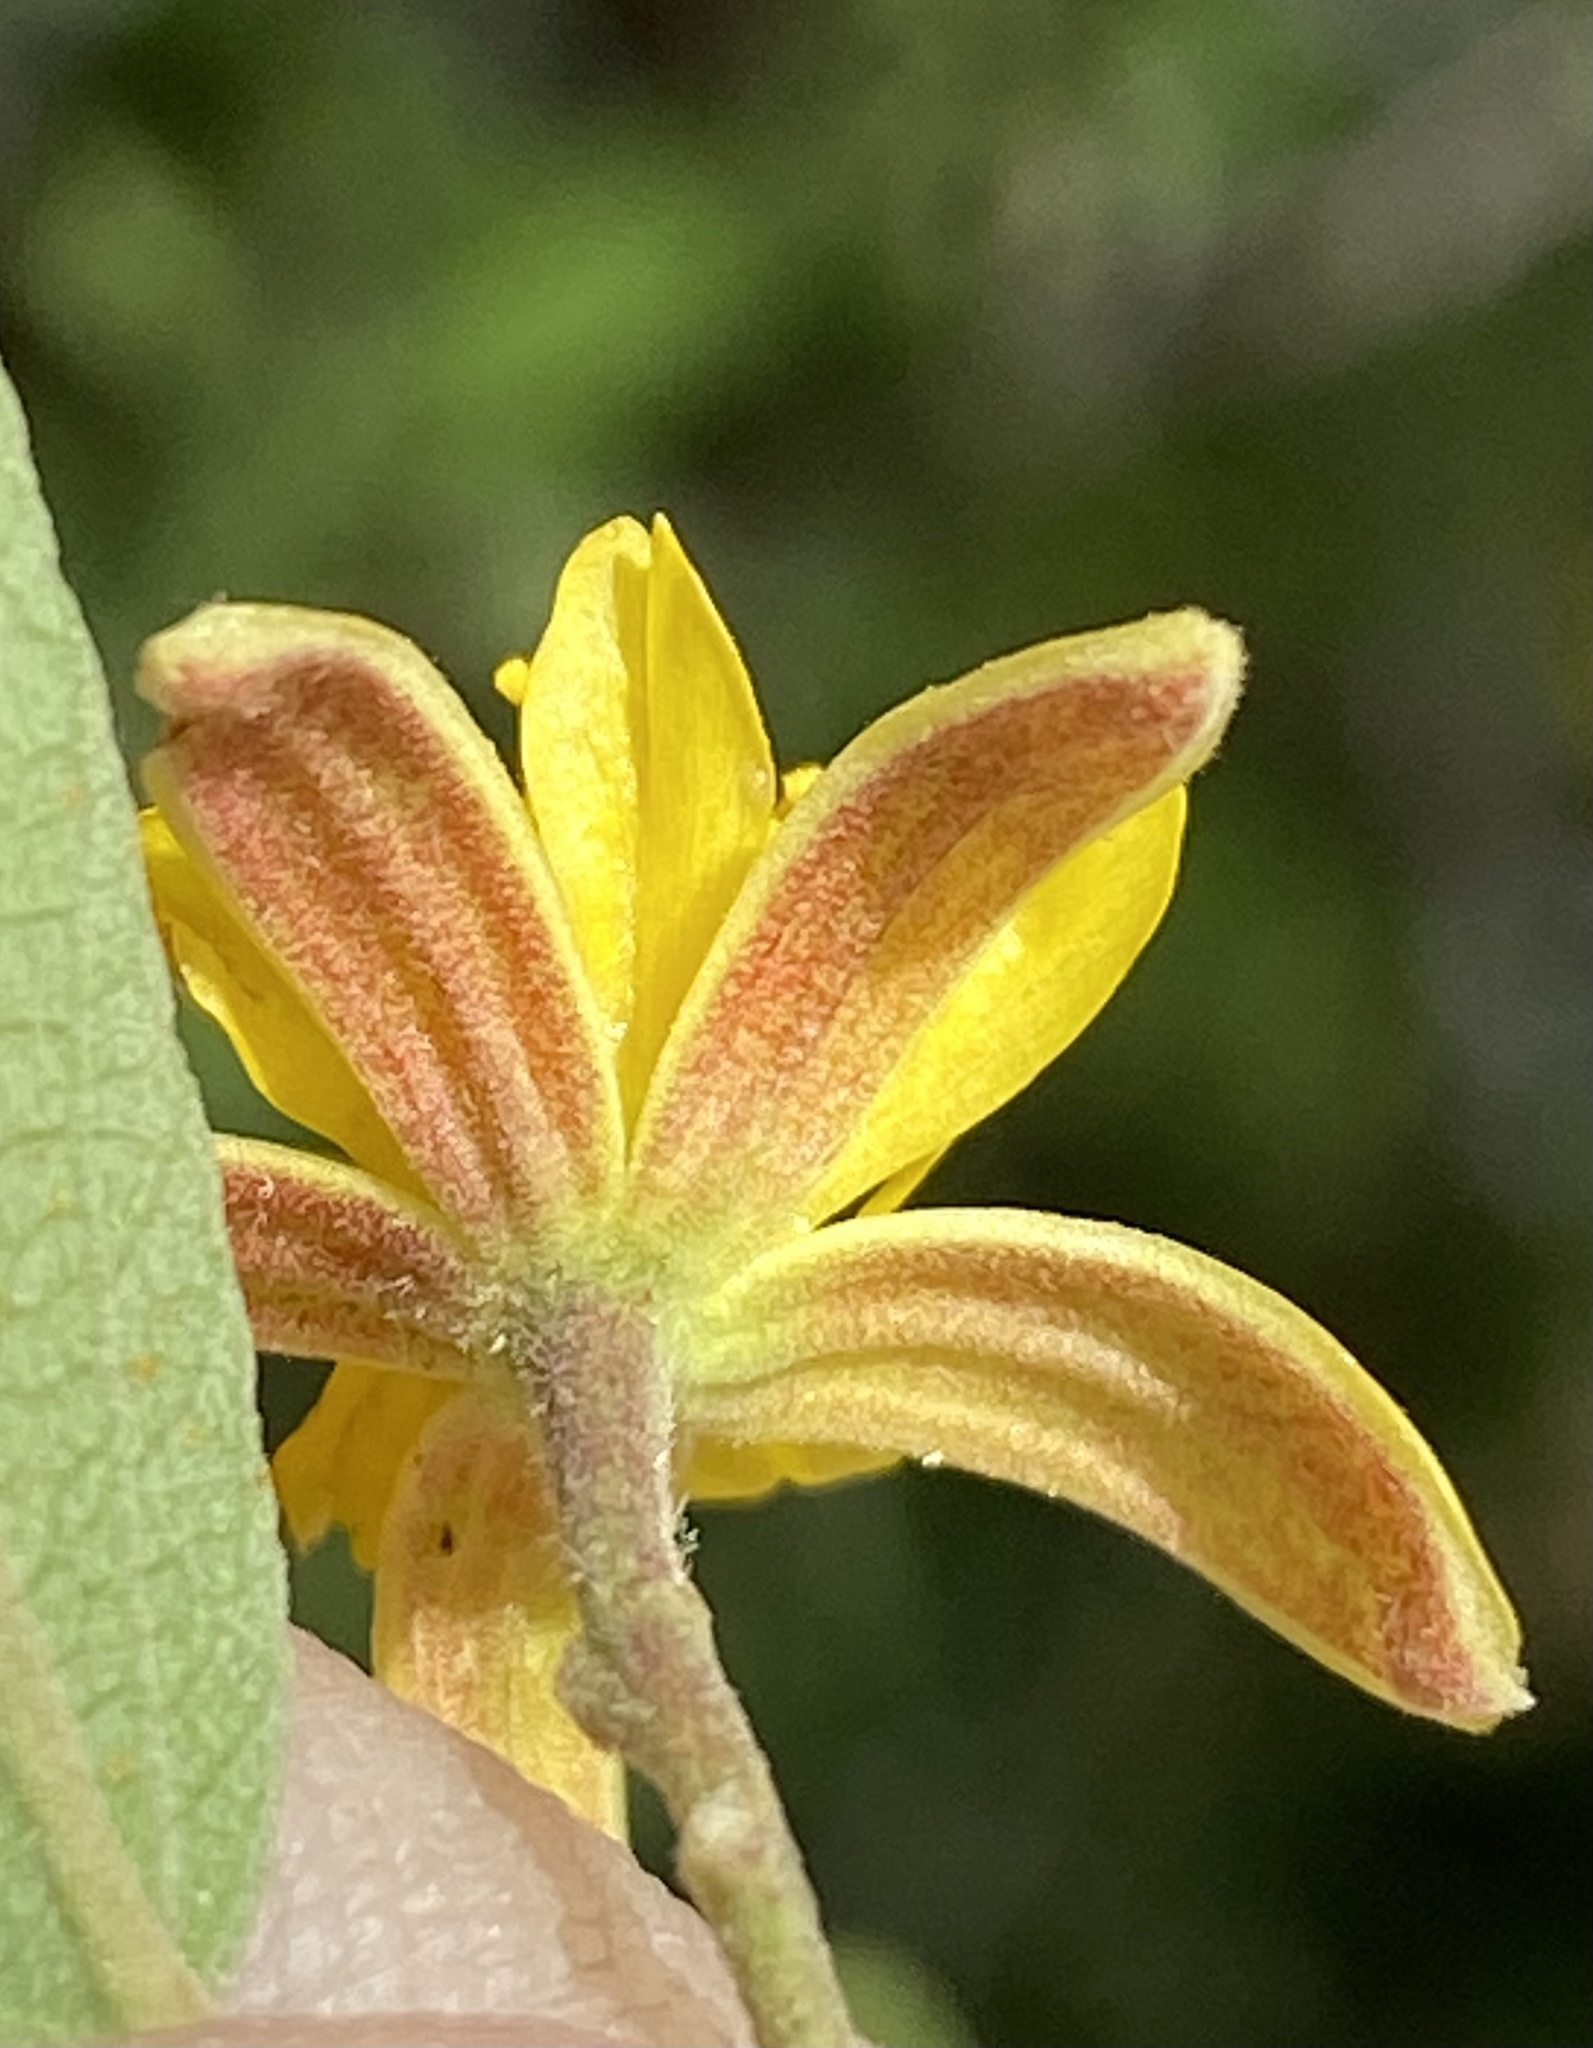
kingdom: Plantae
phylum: Tracheophyta
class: Magnoliopsida
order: Malvales
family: Malvaceae
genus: Grewia
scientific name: Grewia flava
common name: Brandy bush
